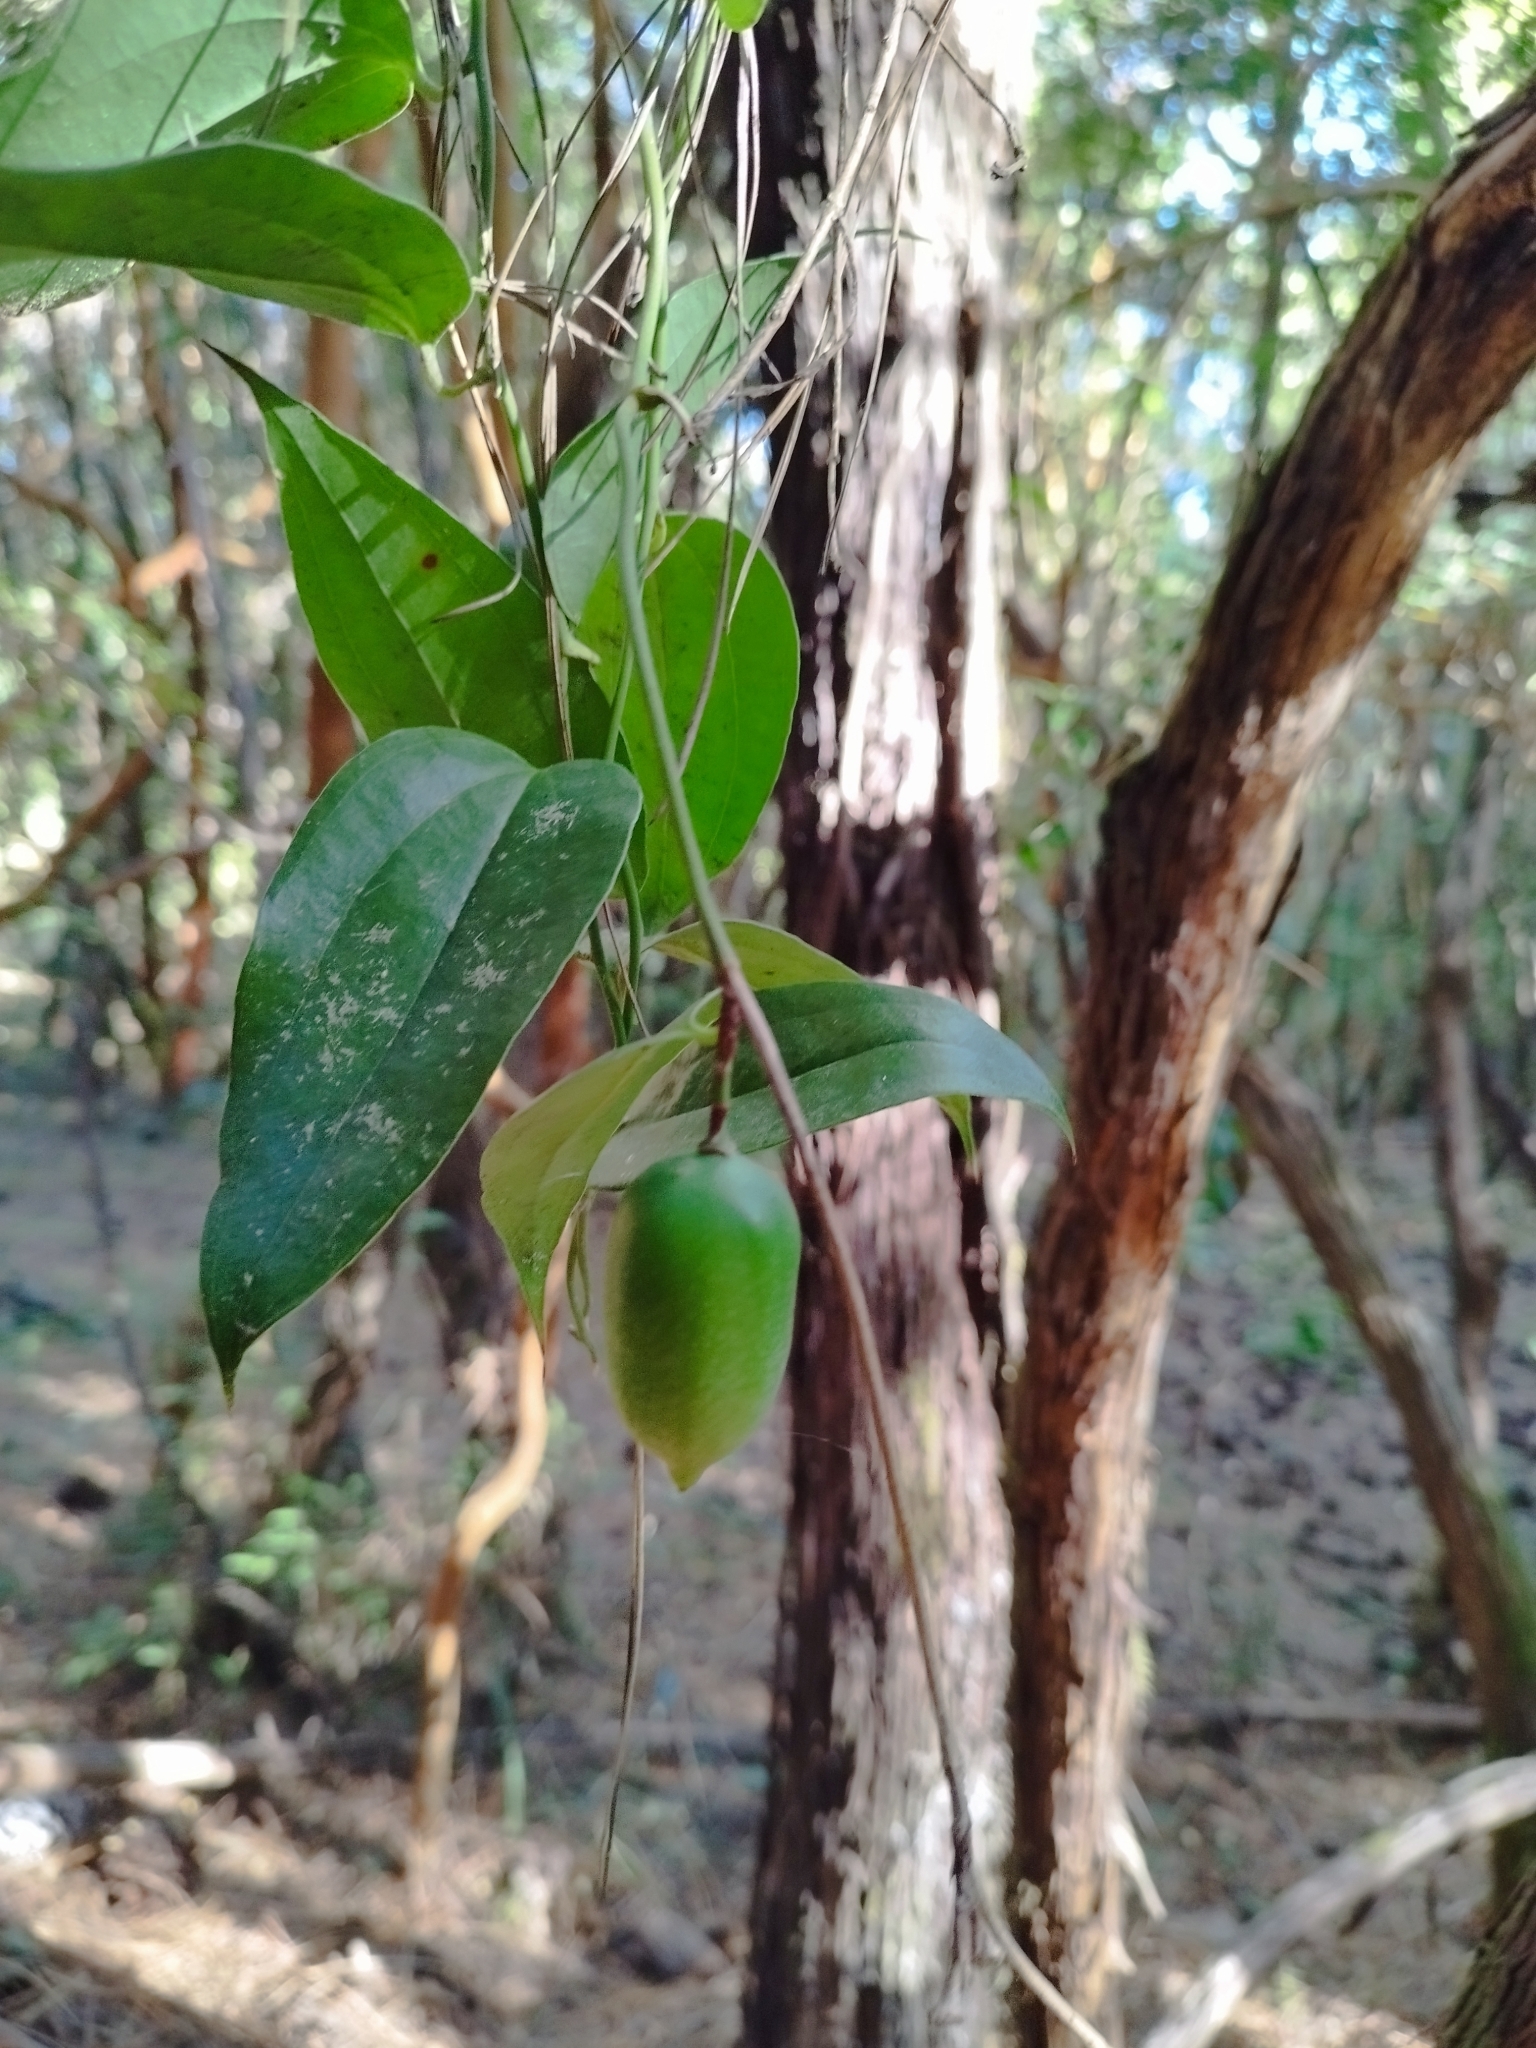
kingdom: Plantae
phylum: Tracheophyta
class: Liliopsida
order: Liliales
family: Philesiaceae
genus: Lapageria
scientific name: Lapageria rosea
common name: Chilean-bellflower
